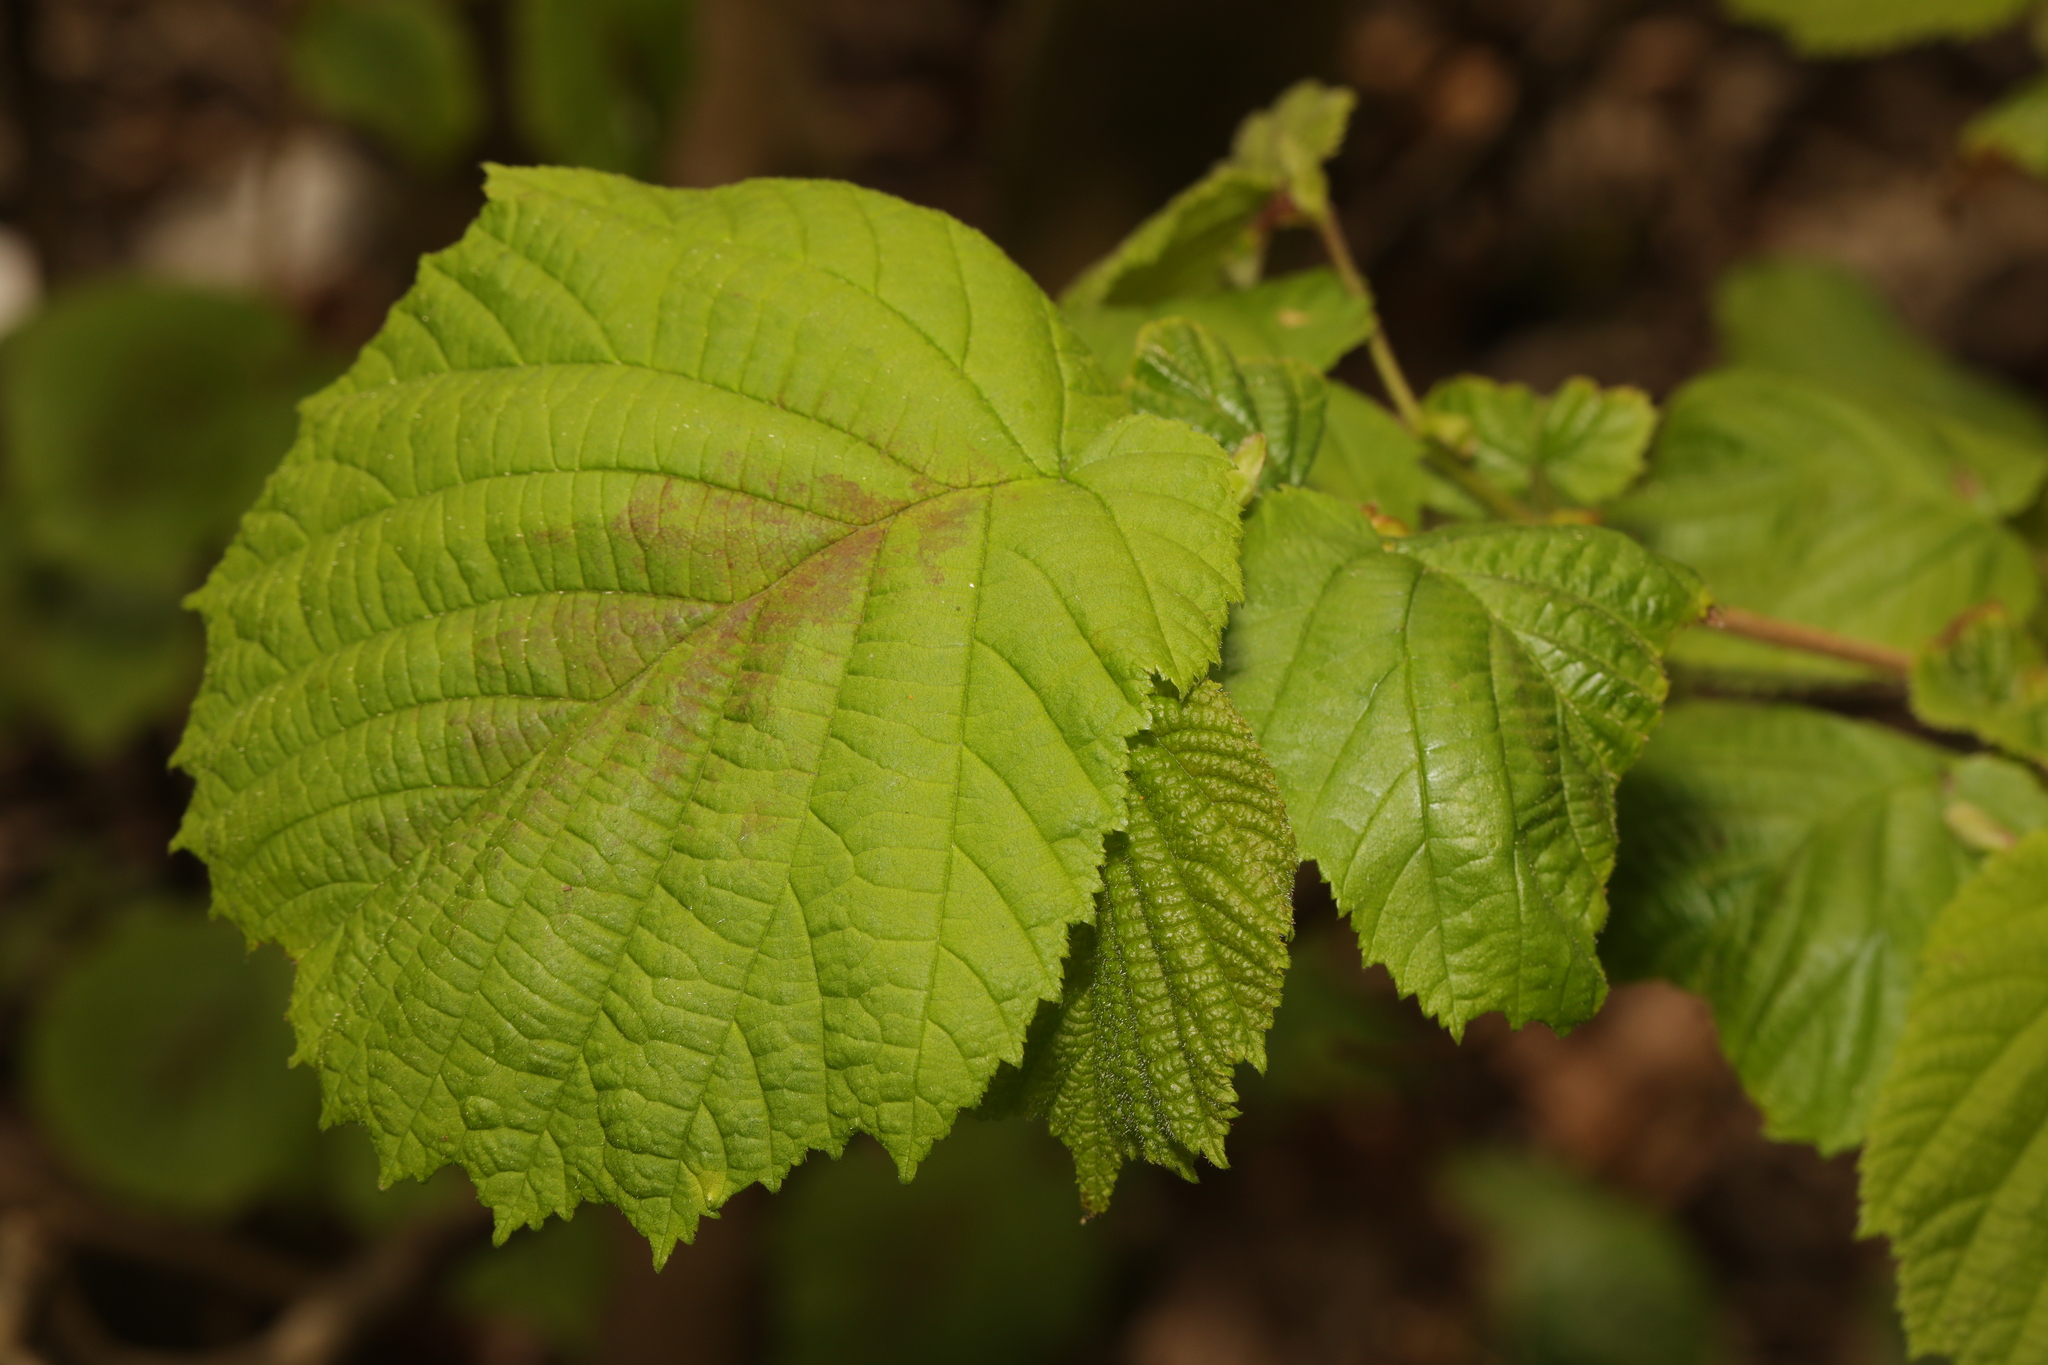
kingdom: Plantae
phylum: Tracheophyta
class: Magnoliopsida
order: Fagales
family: Betulaceae
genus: Corylus
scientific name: Corylus avellana
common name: European hazel
